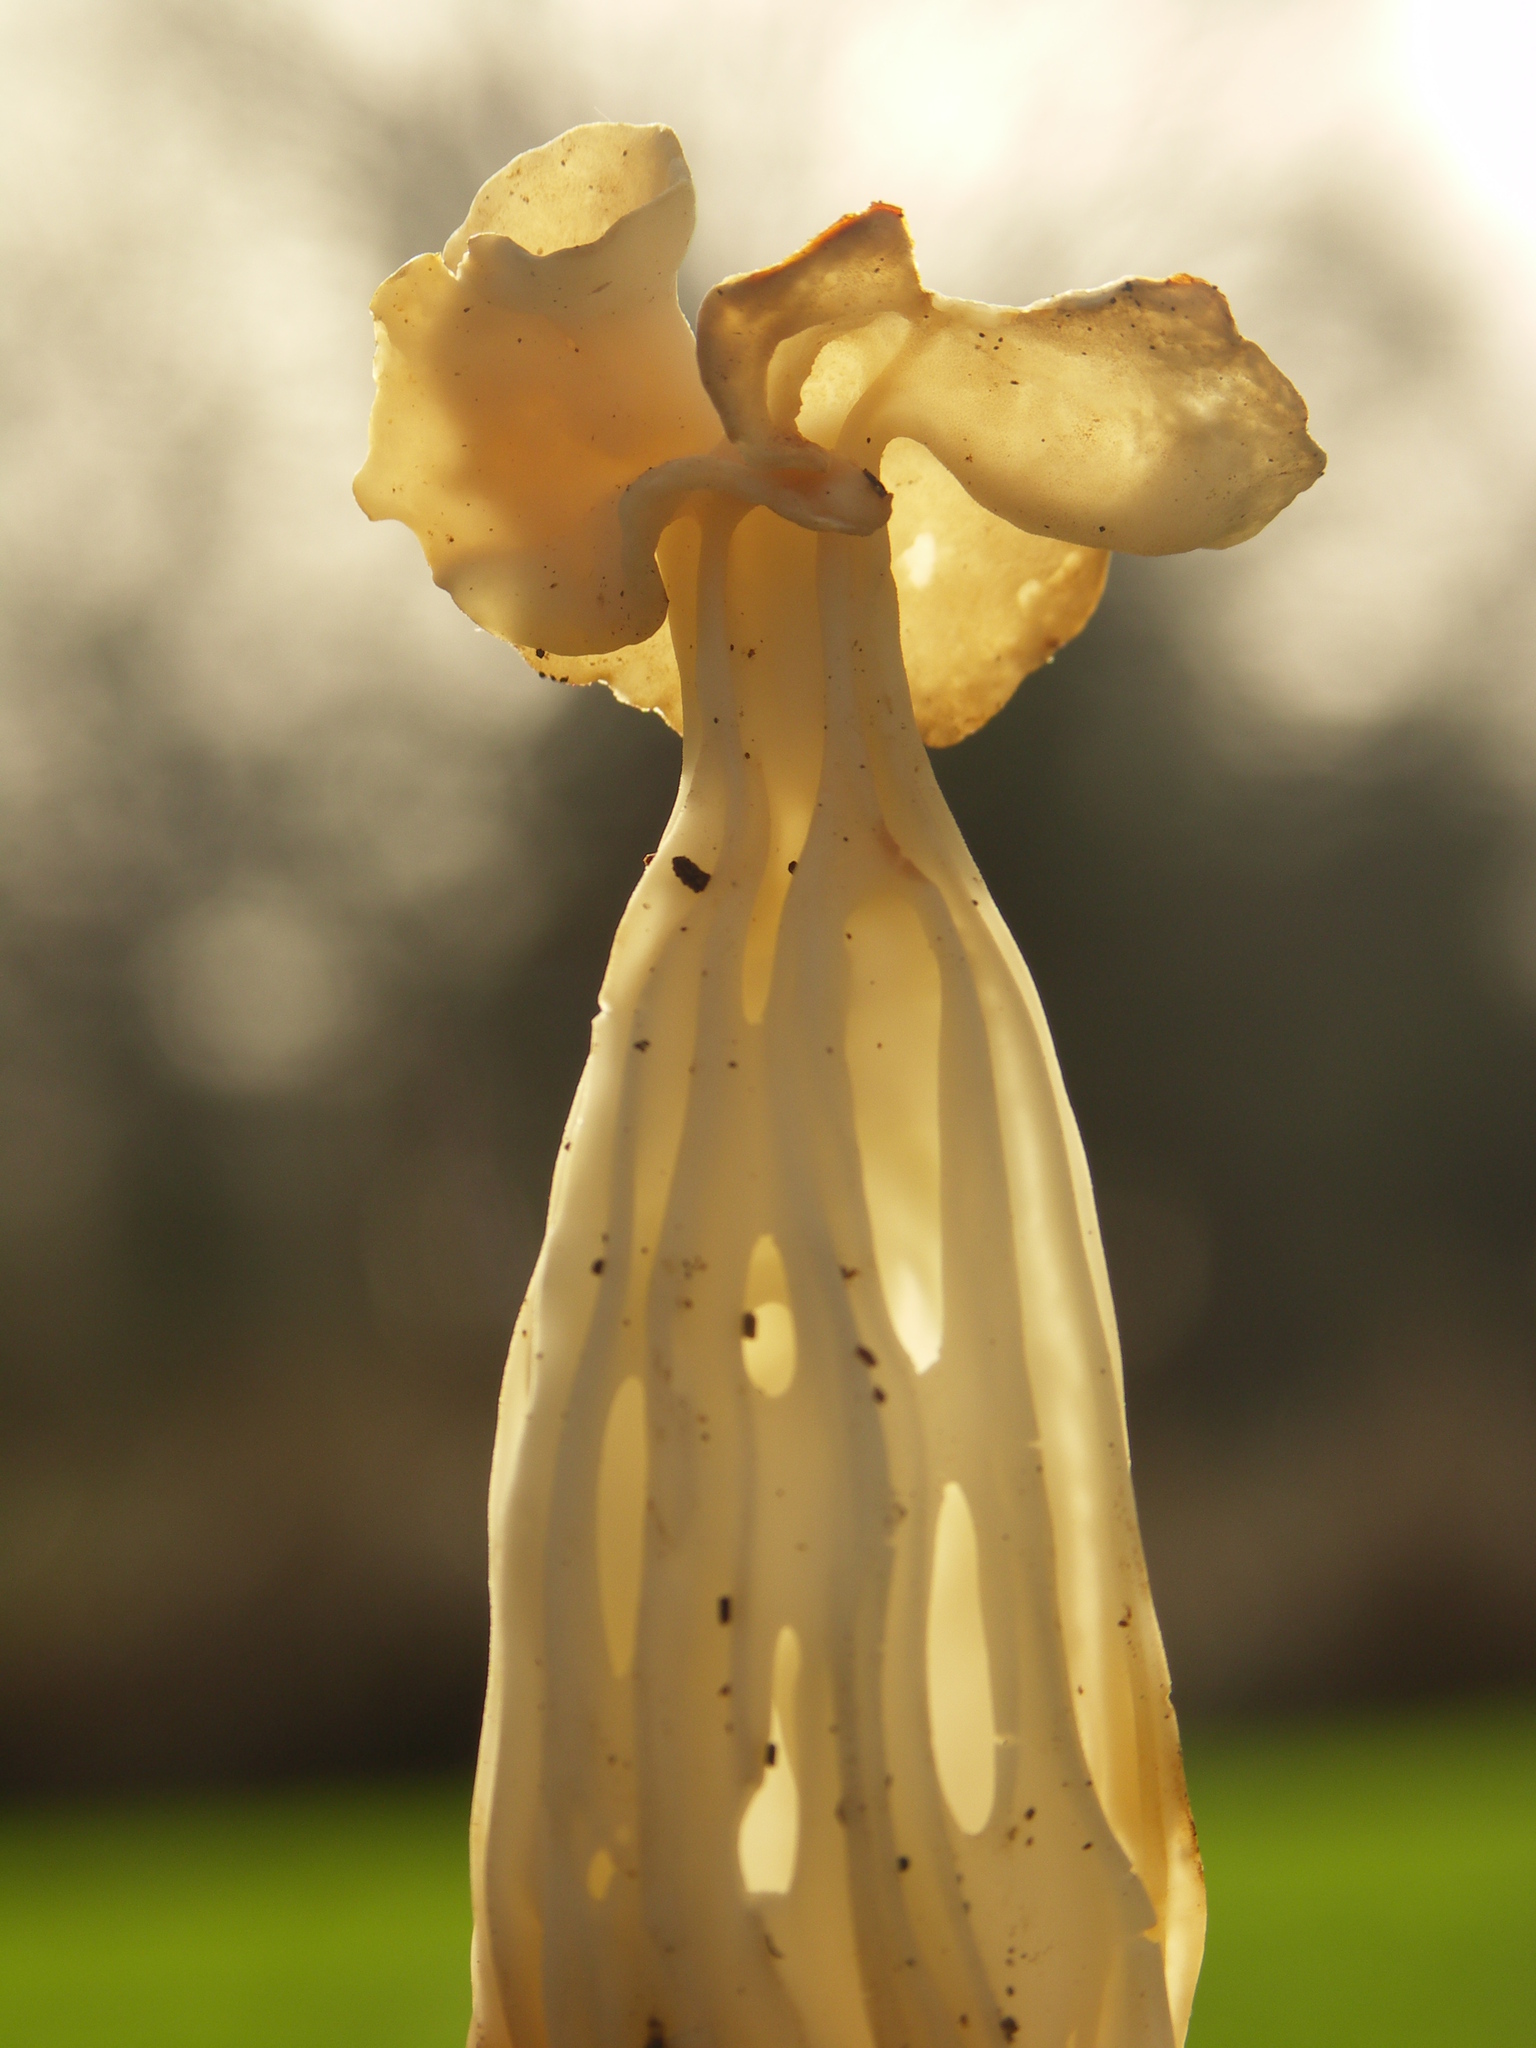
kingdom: Fungi
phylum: Ascomycota
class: Pezizomycetes
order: Pezizales
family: Helvellaceae
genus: Helvella
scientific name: Helvella crispa
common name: White saddle
